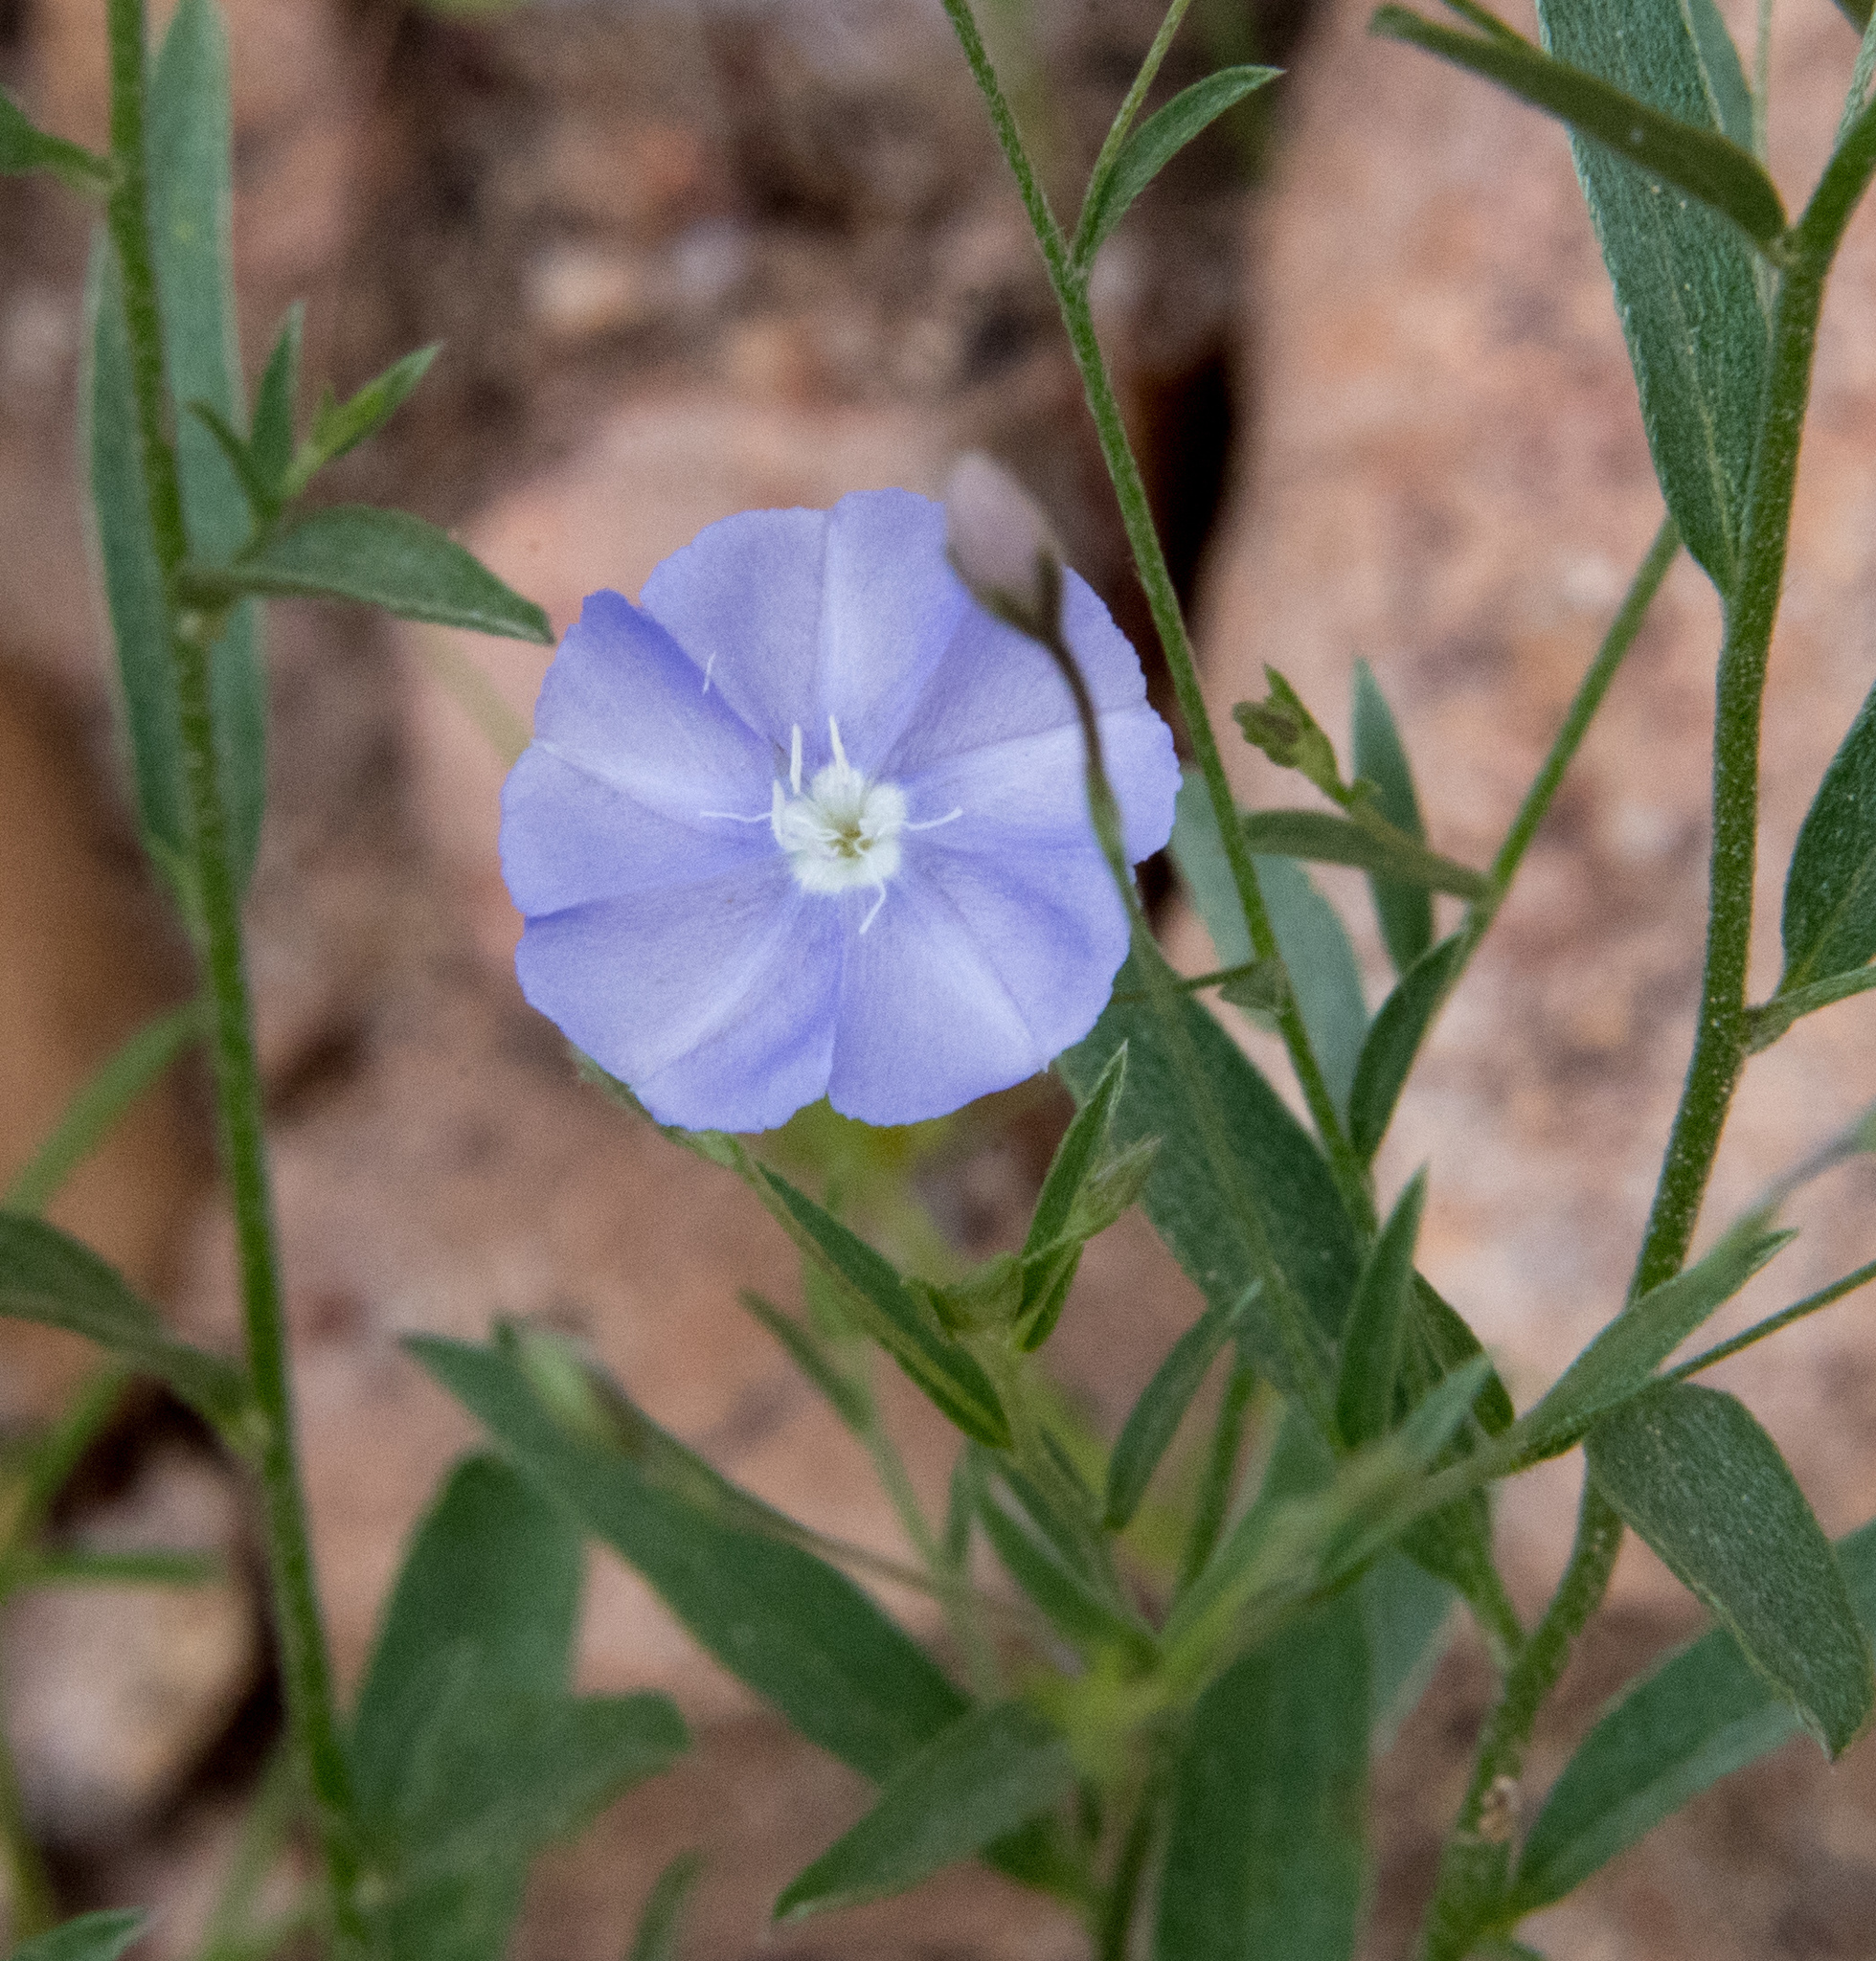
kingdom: Plantae
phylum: Tracheophyta
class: Magnoliopsida
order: Solanales
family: Convolvulaceae
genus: Evolvulus
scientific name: Evolvulus arizonicus
